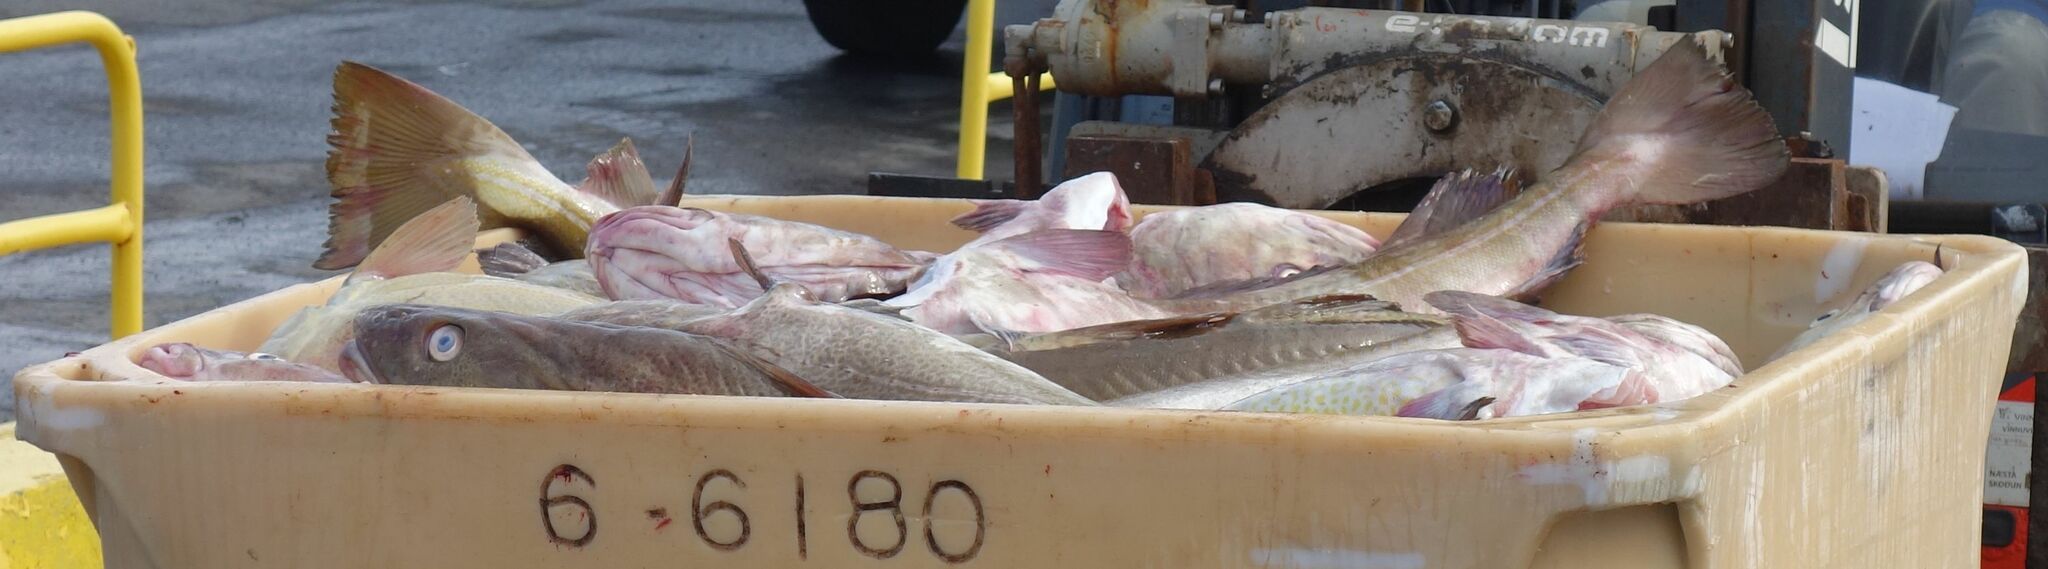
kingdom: Animalia
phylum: Chordata
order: Gadiformes
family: Gadidae
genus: Gadus
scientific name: Gadus morhua
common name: Atlantic cod
